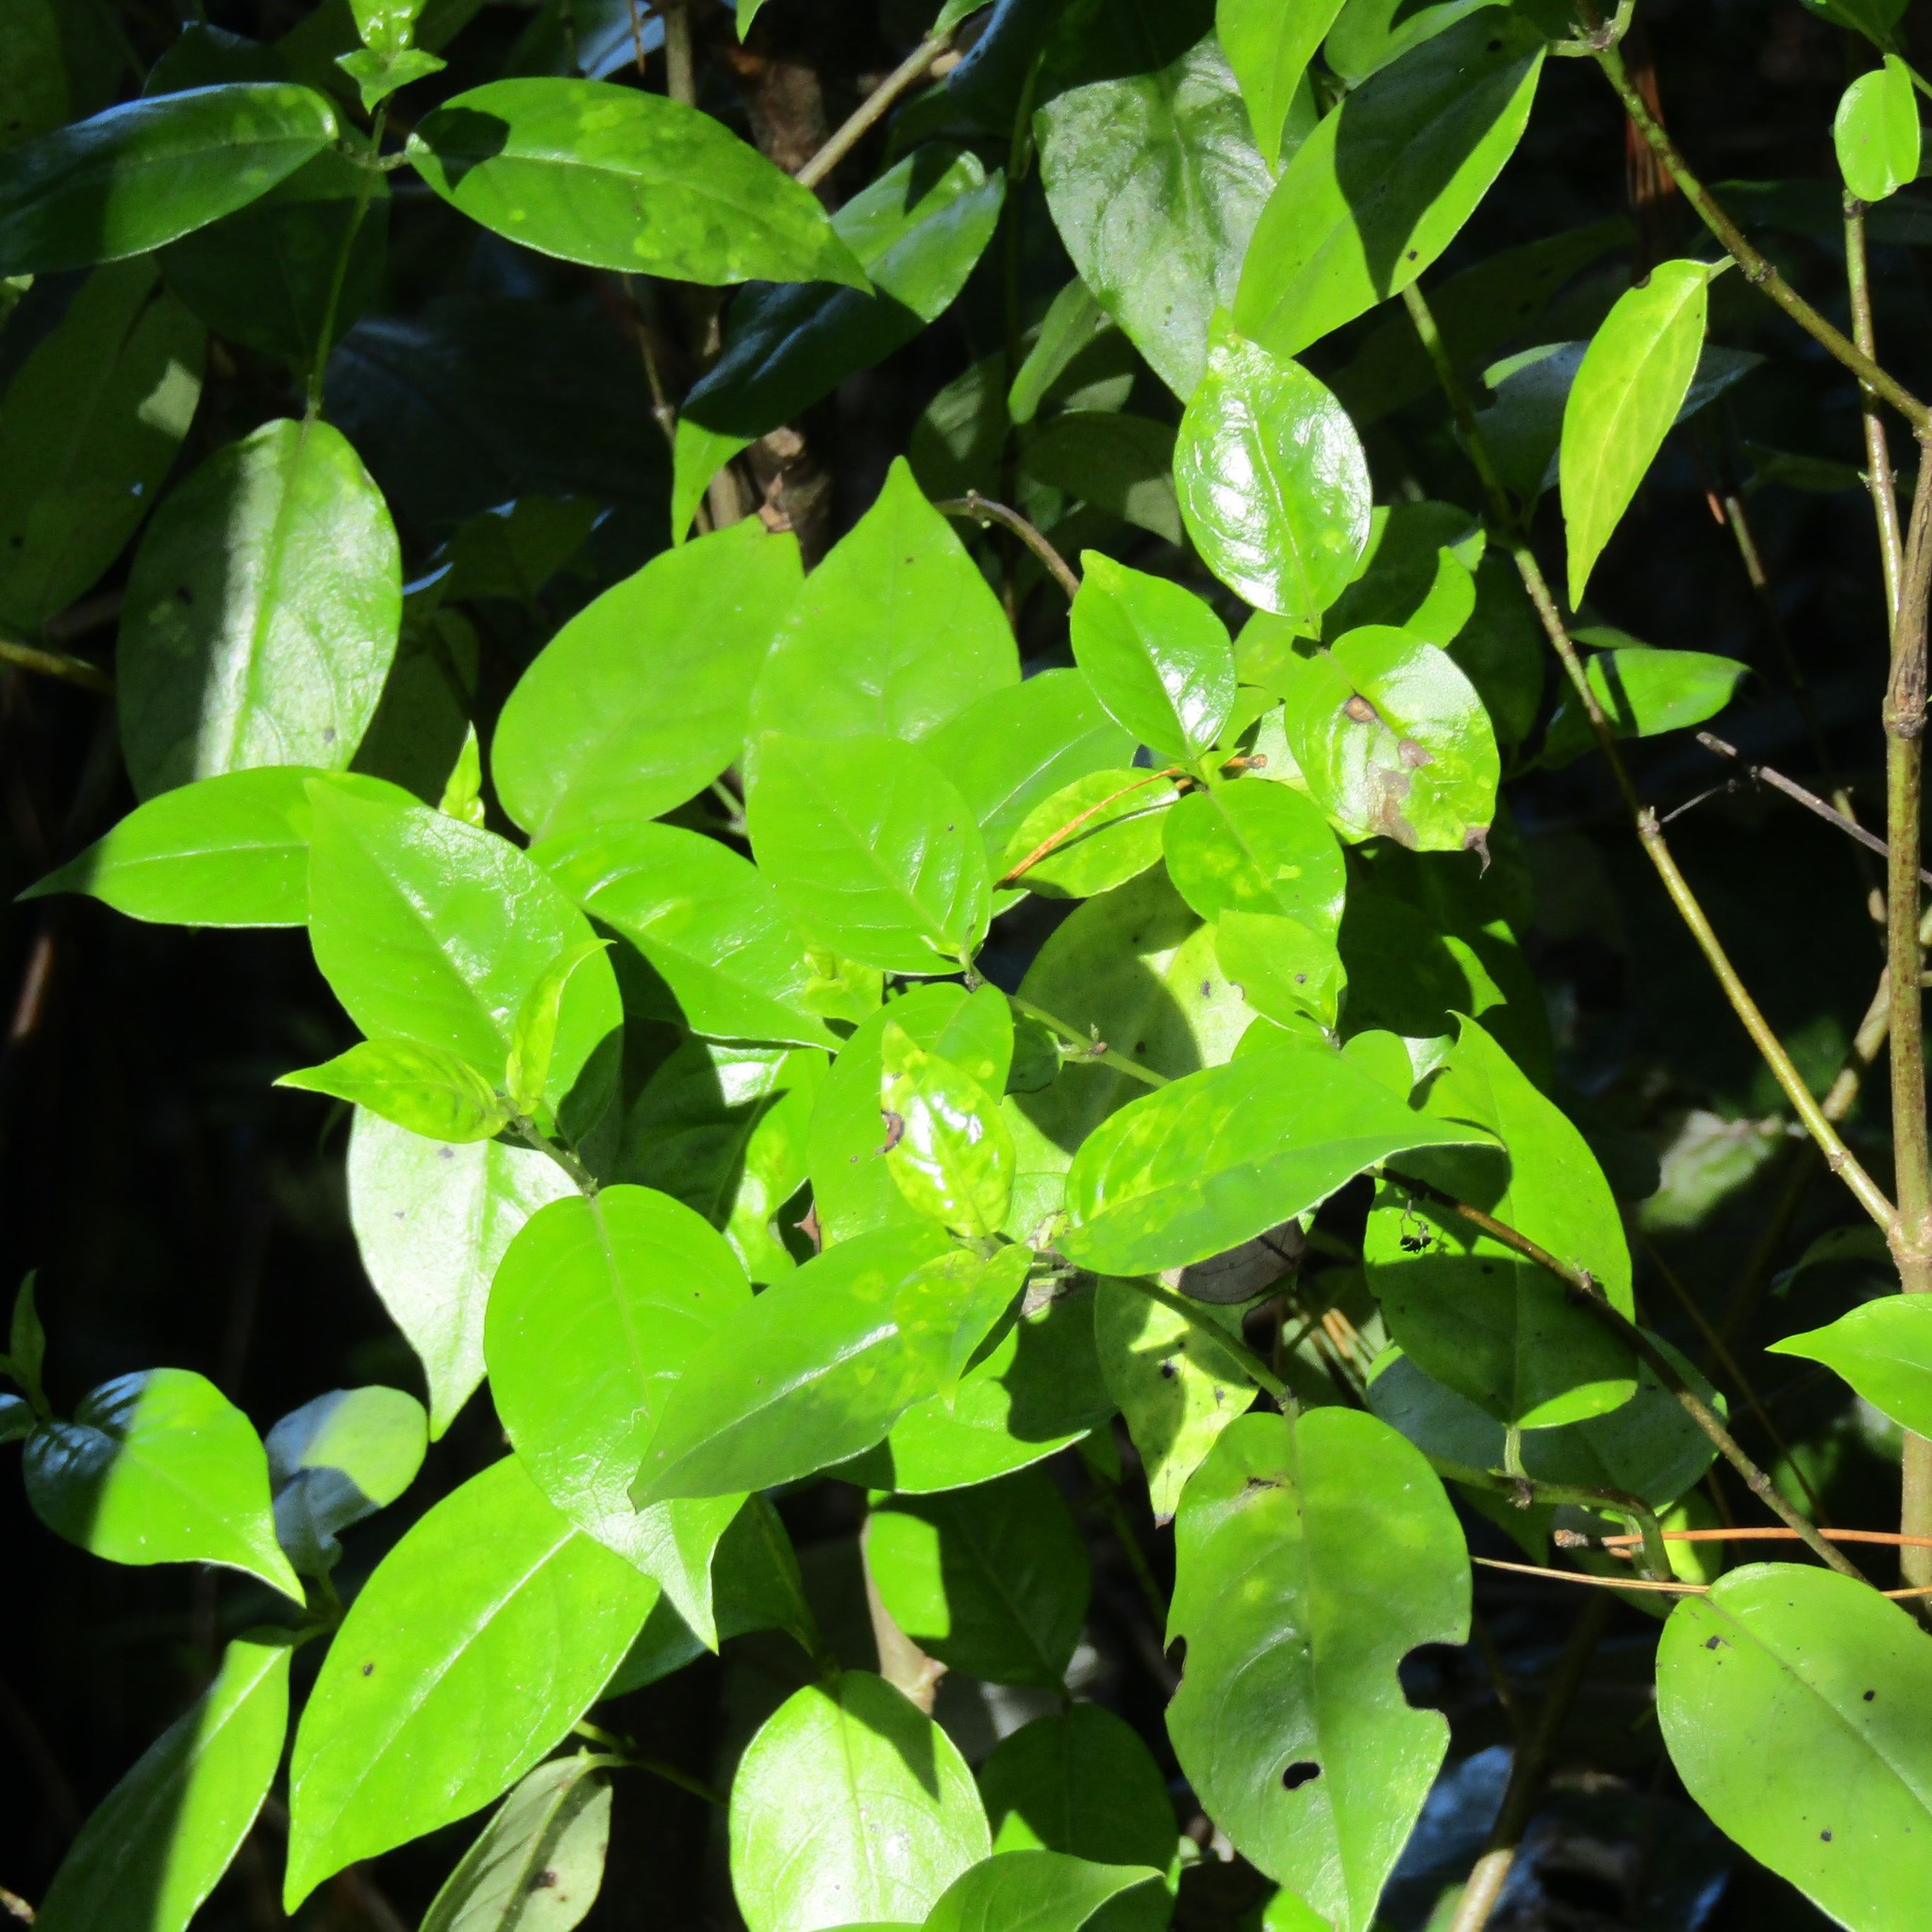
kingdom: Plantae
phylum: Tracheophyta
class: Magnoliopsida
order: Gentianales
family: Loganiaceae
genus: Geniostoma
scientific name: Geniostoma ligustrifolium
